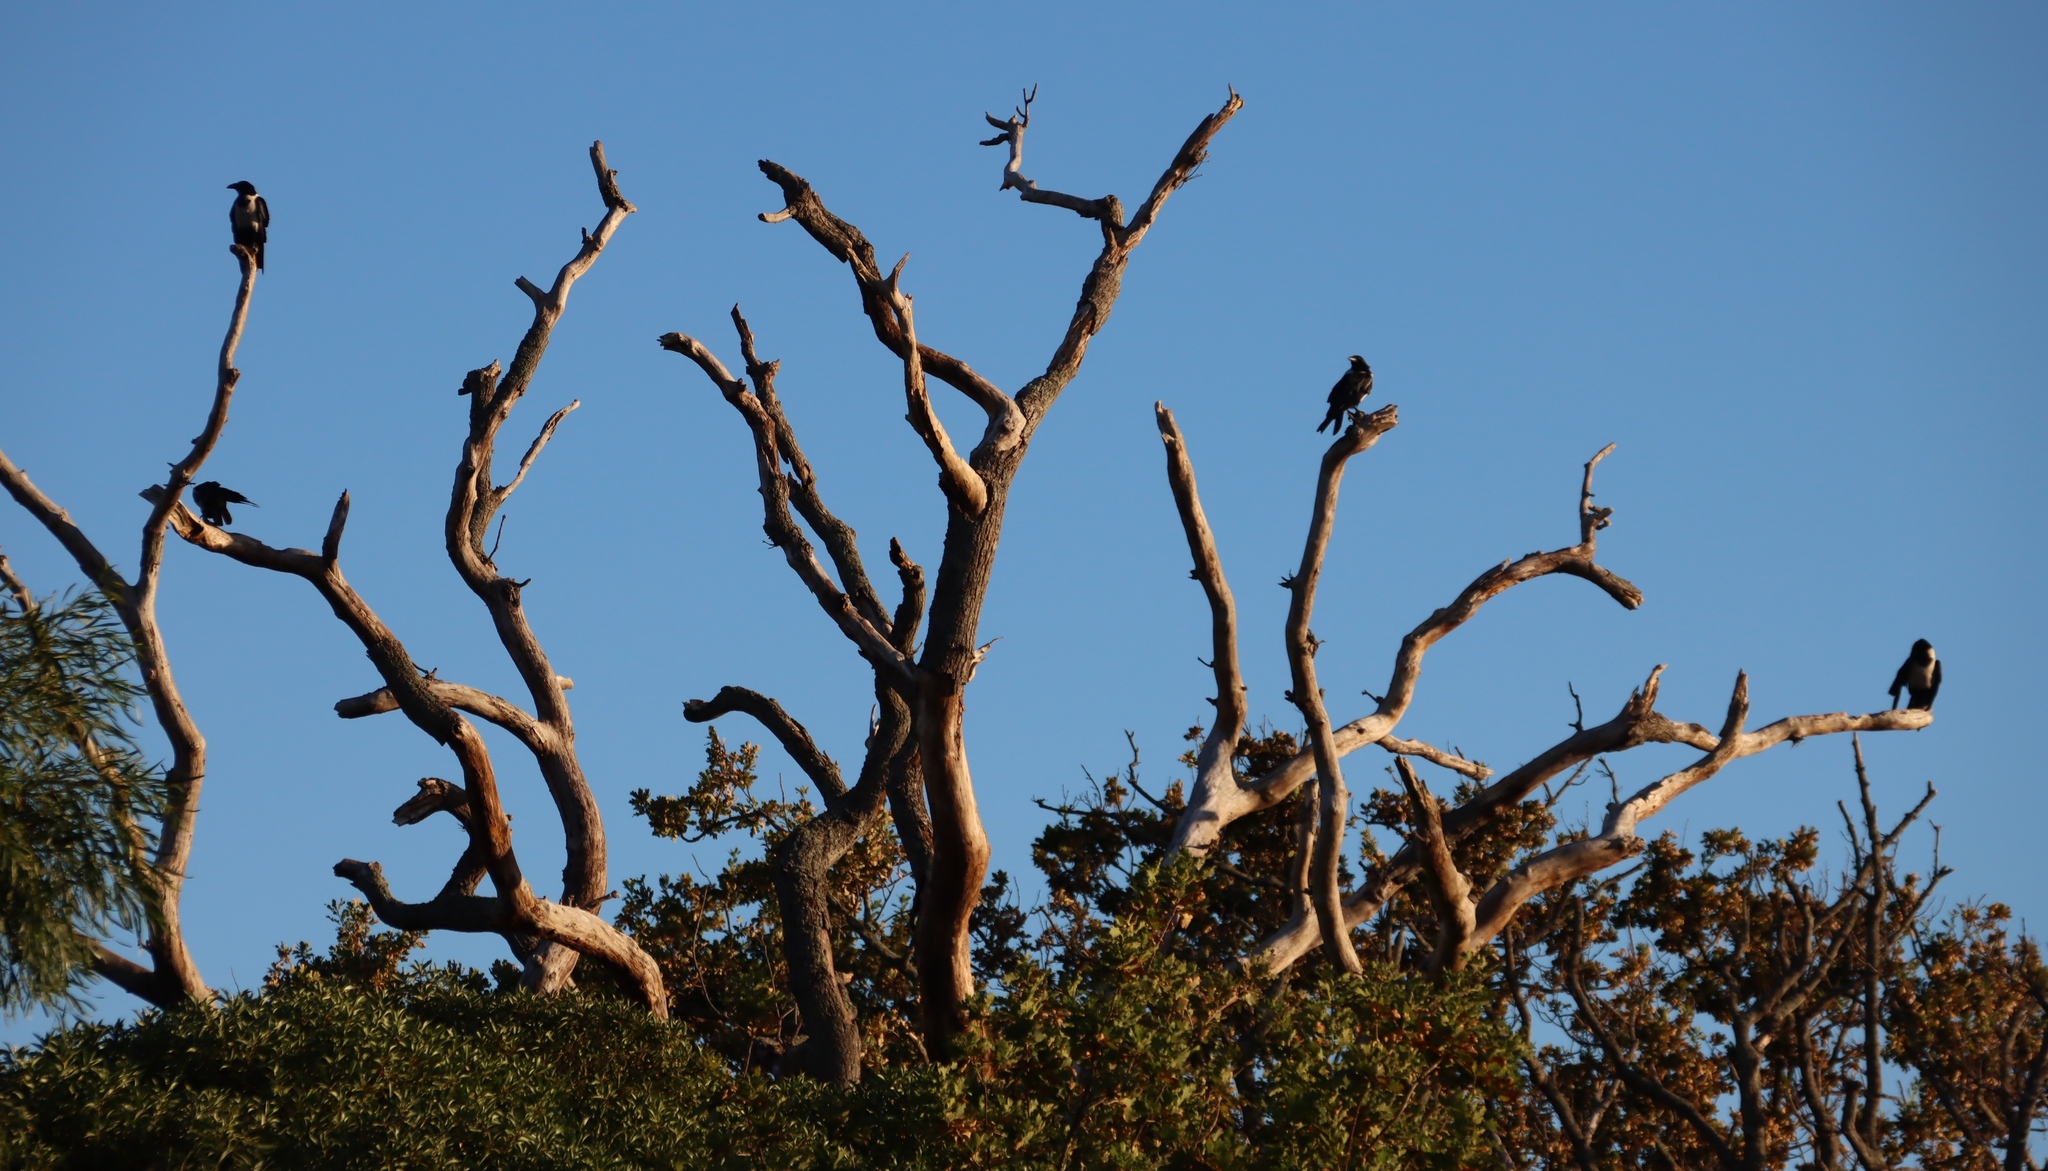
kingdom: Animalia
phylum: Chordata
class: Aves
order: Passeriformes
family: Corvidae
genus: Corvus
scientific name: Corvus albus
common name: Pied crow
